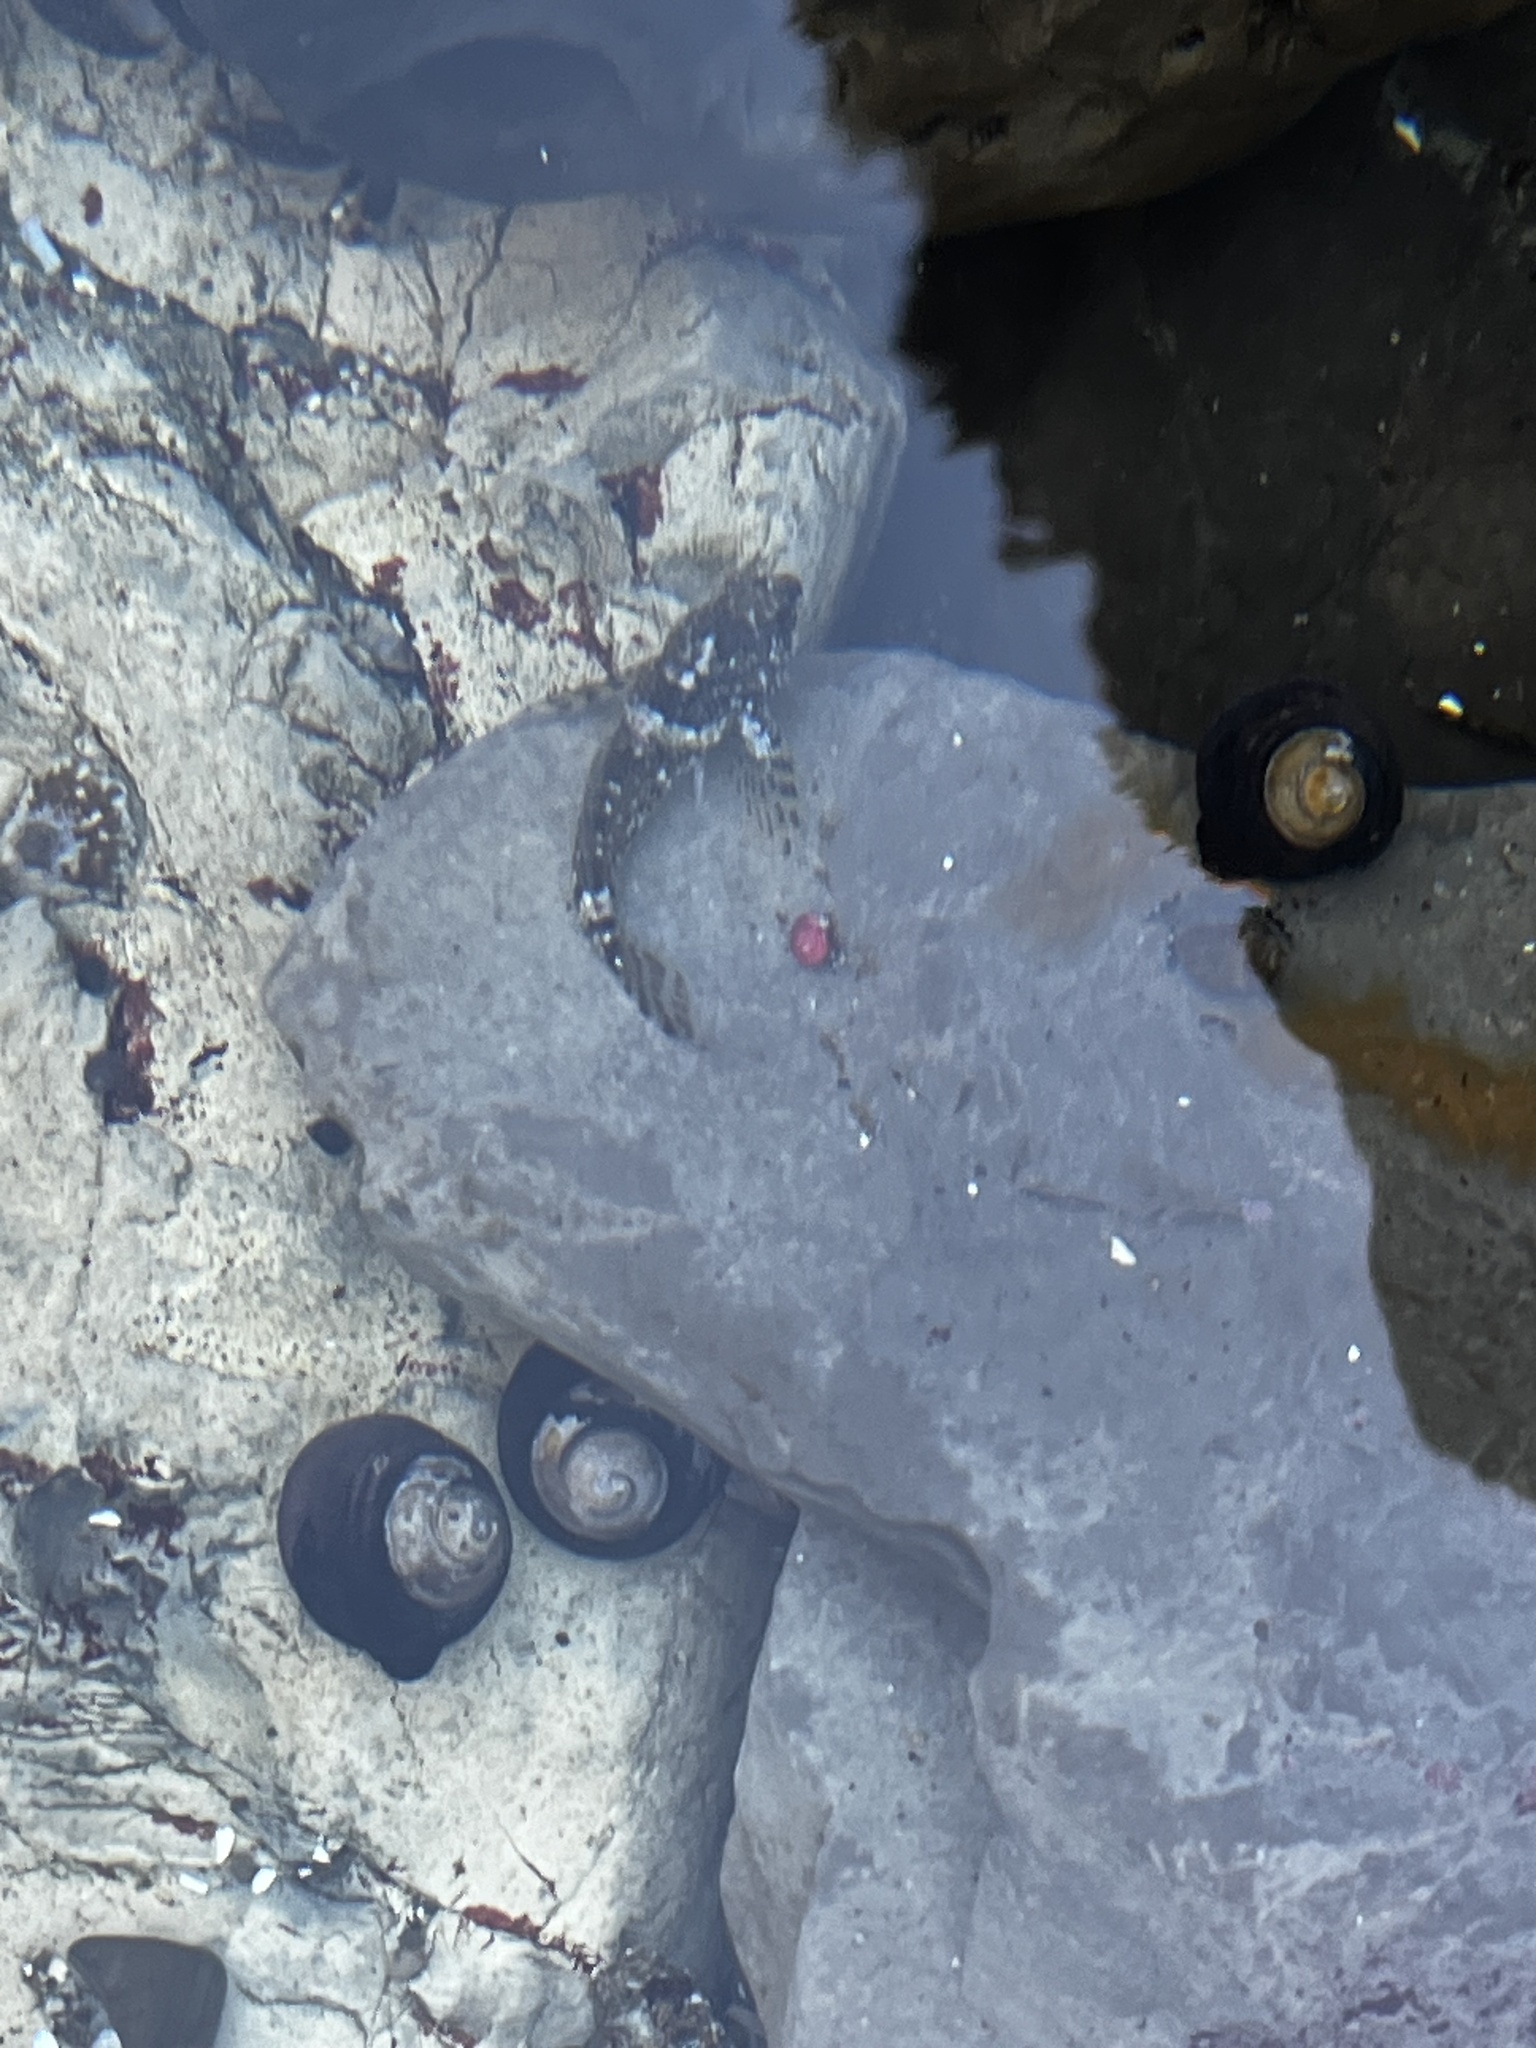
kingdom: Animalia
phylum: Chordata
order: Scorpaeniformes
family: Cottidae
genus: Clinocottus
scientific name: Clinocottus analis
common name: Woolly sculpin
